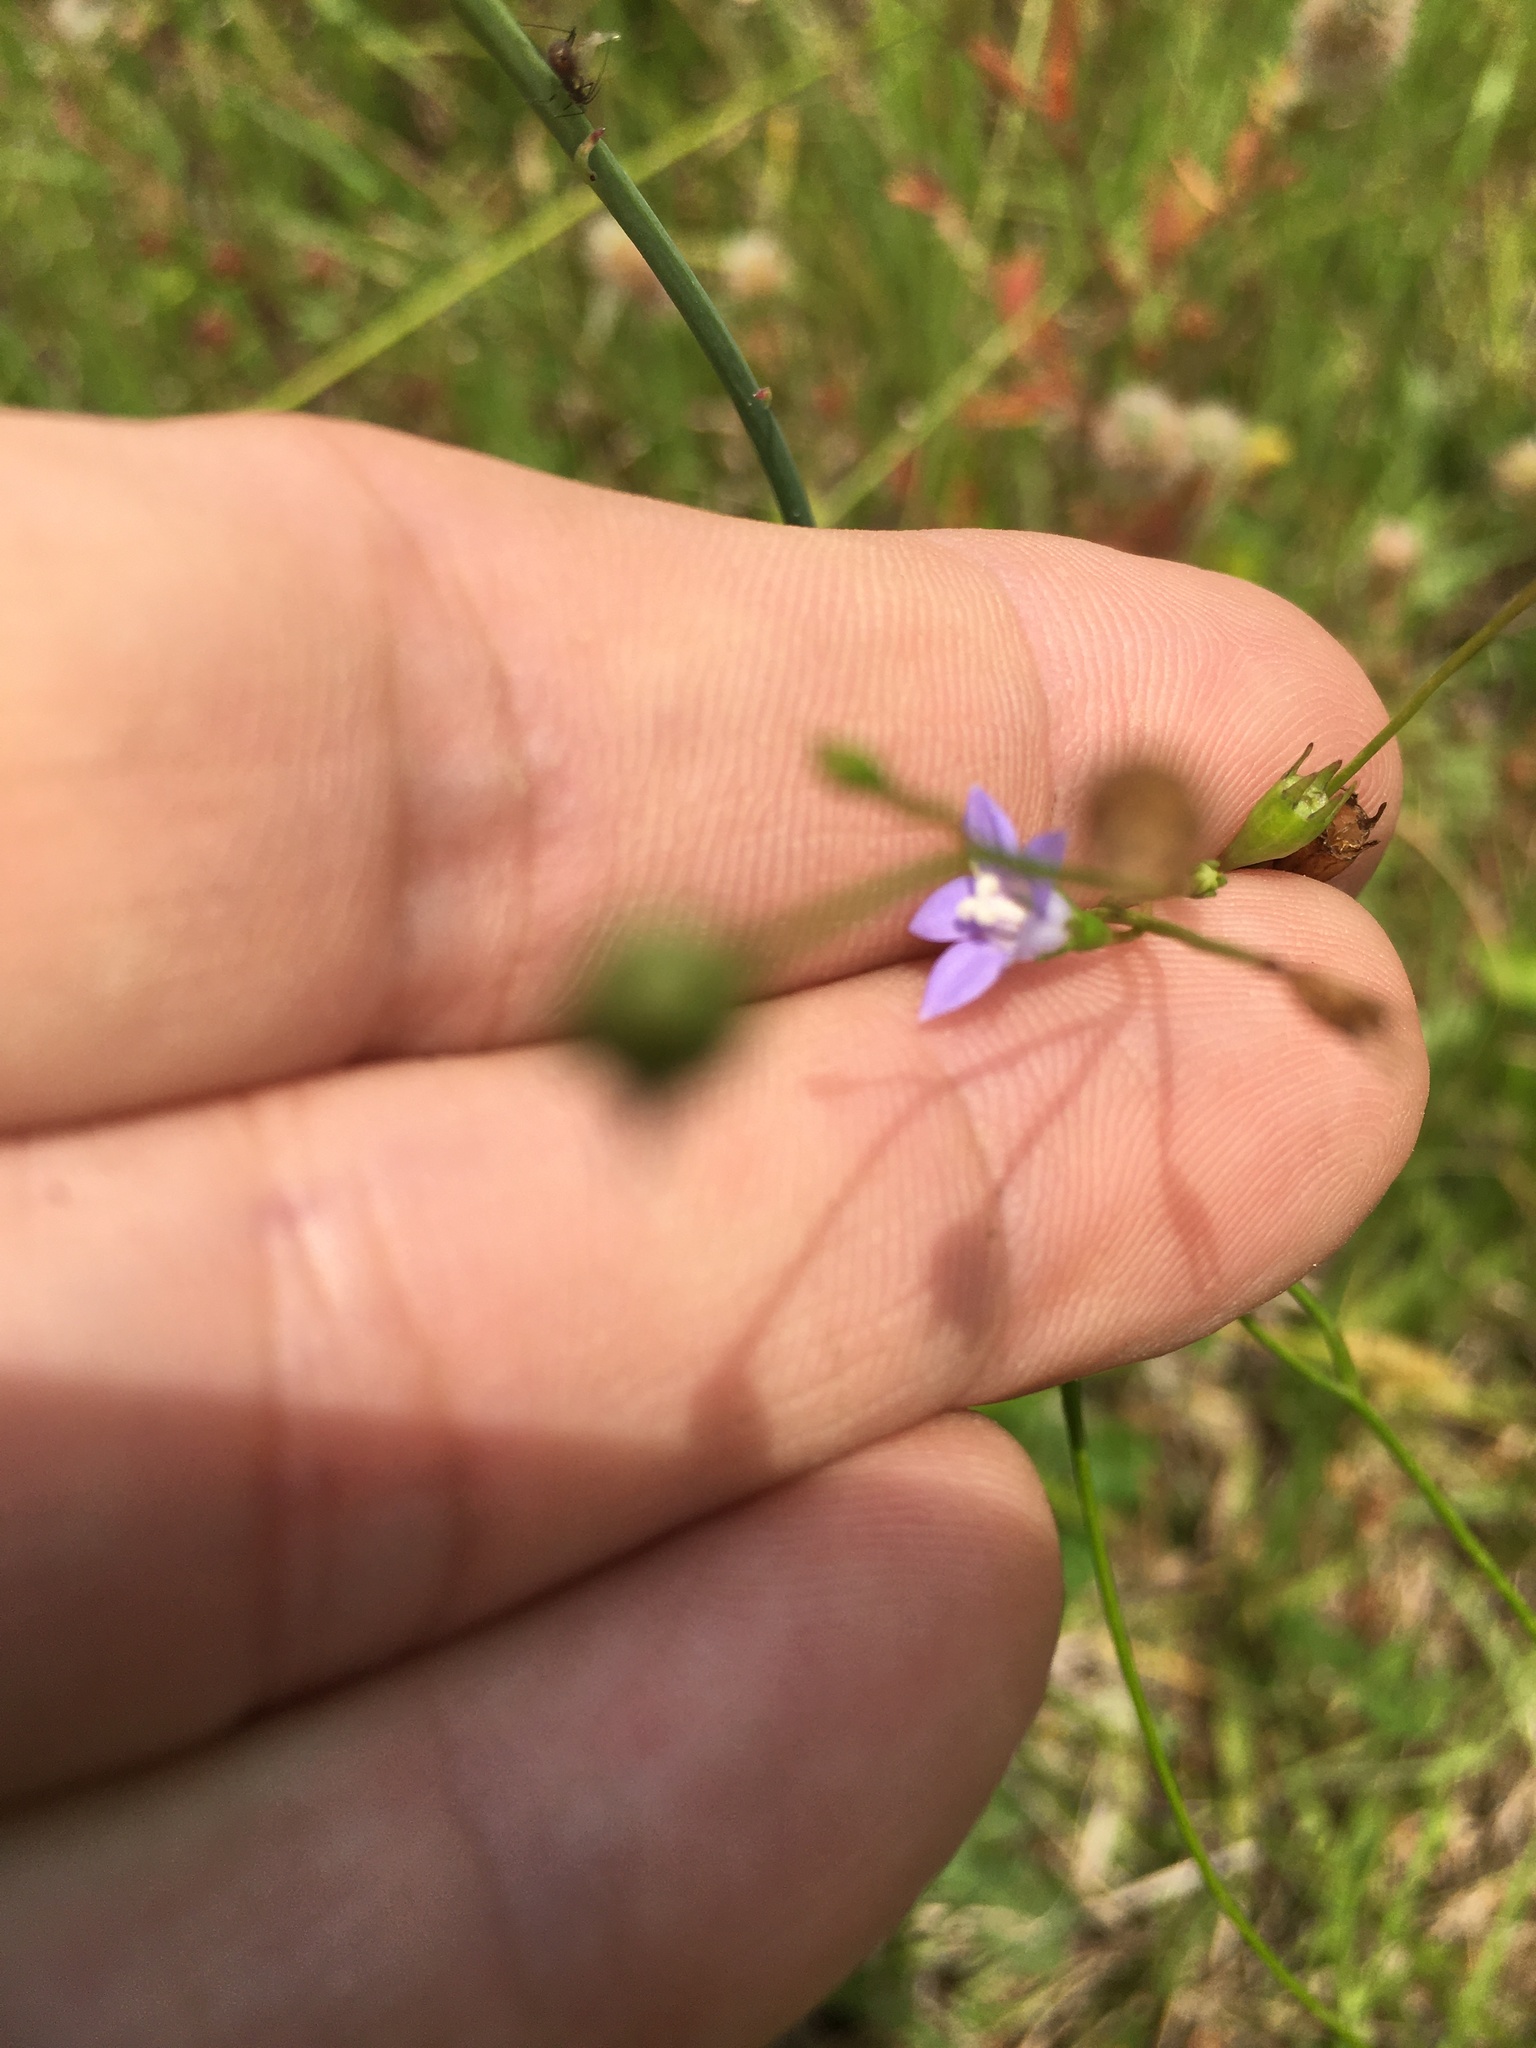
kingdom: Plantae
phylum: Tracheophyta
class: Magnoliopsida
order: Asterales
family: Campanulaceae
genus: Wahlenbergia
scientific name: Wahlenbergia marginata
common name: Southern rockbell
